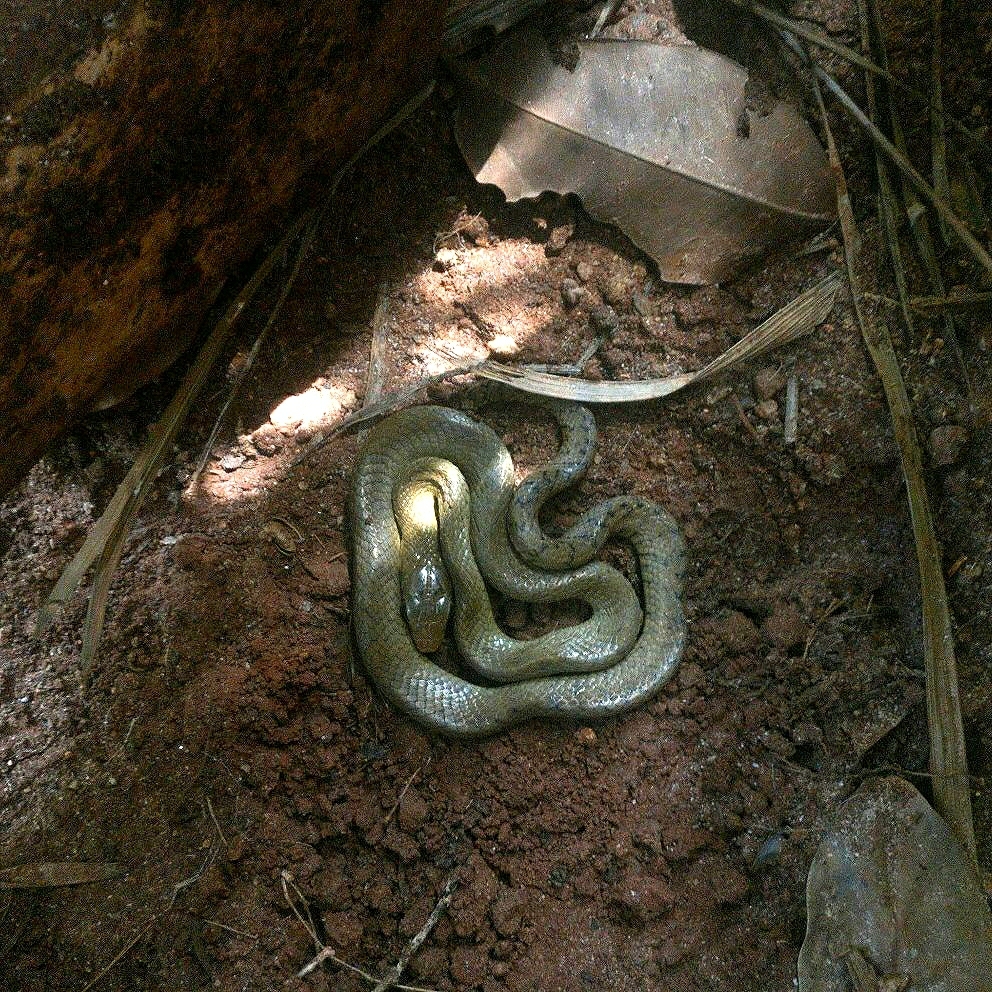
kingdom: Animalia
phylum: Chordata
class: Squamata
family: Colubridae
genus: Ptyas
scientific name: Ptyas mucosa
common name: Oriental ratsnake
